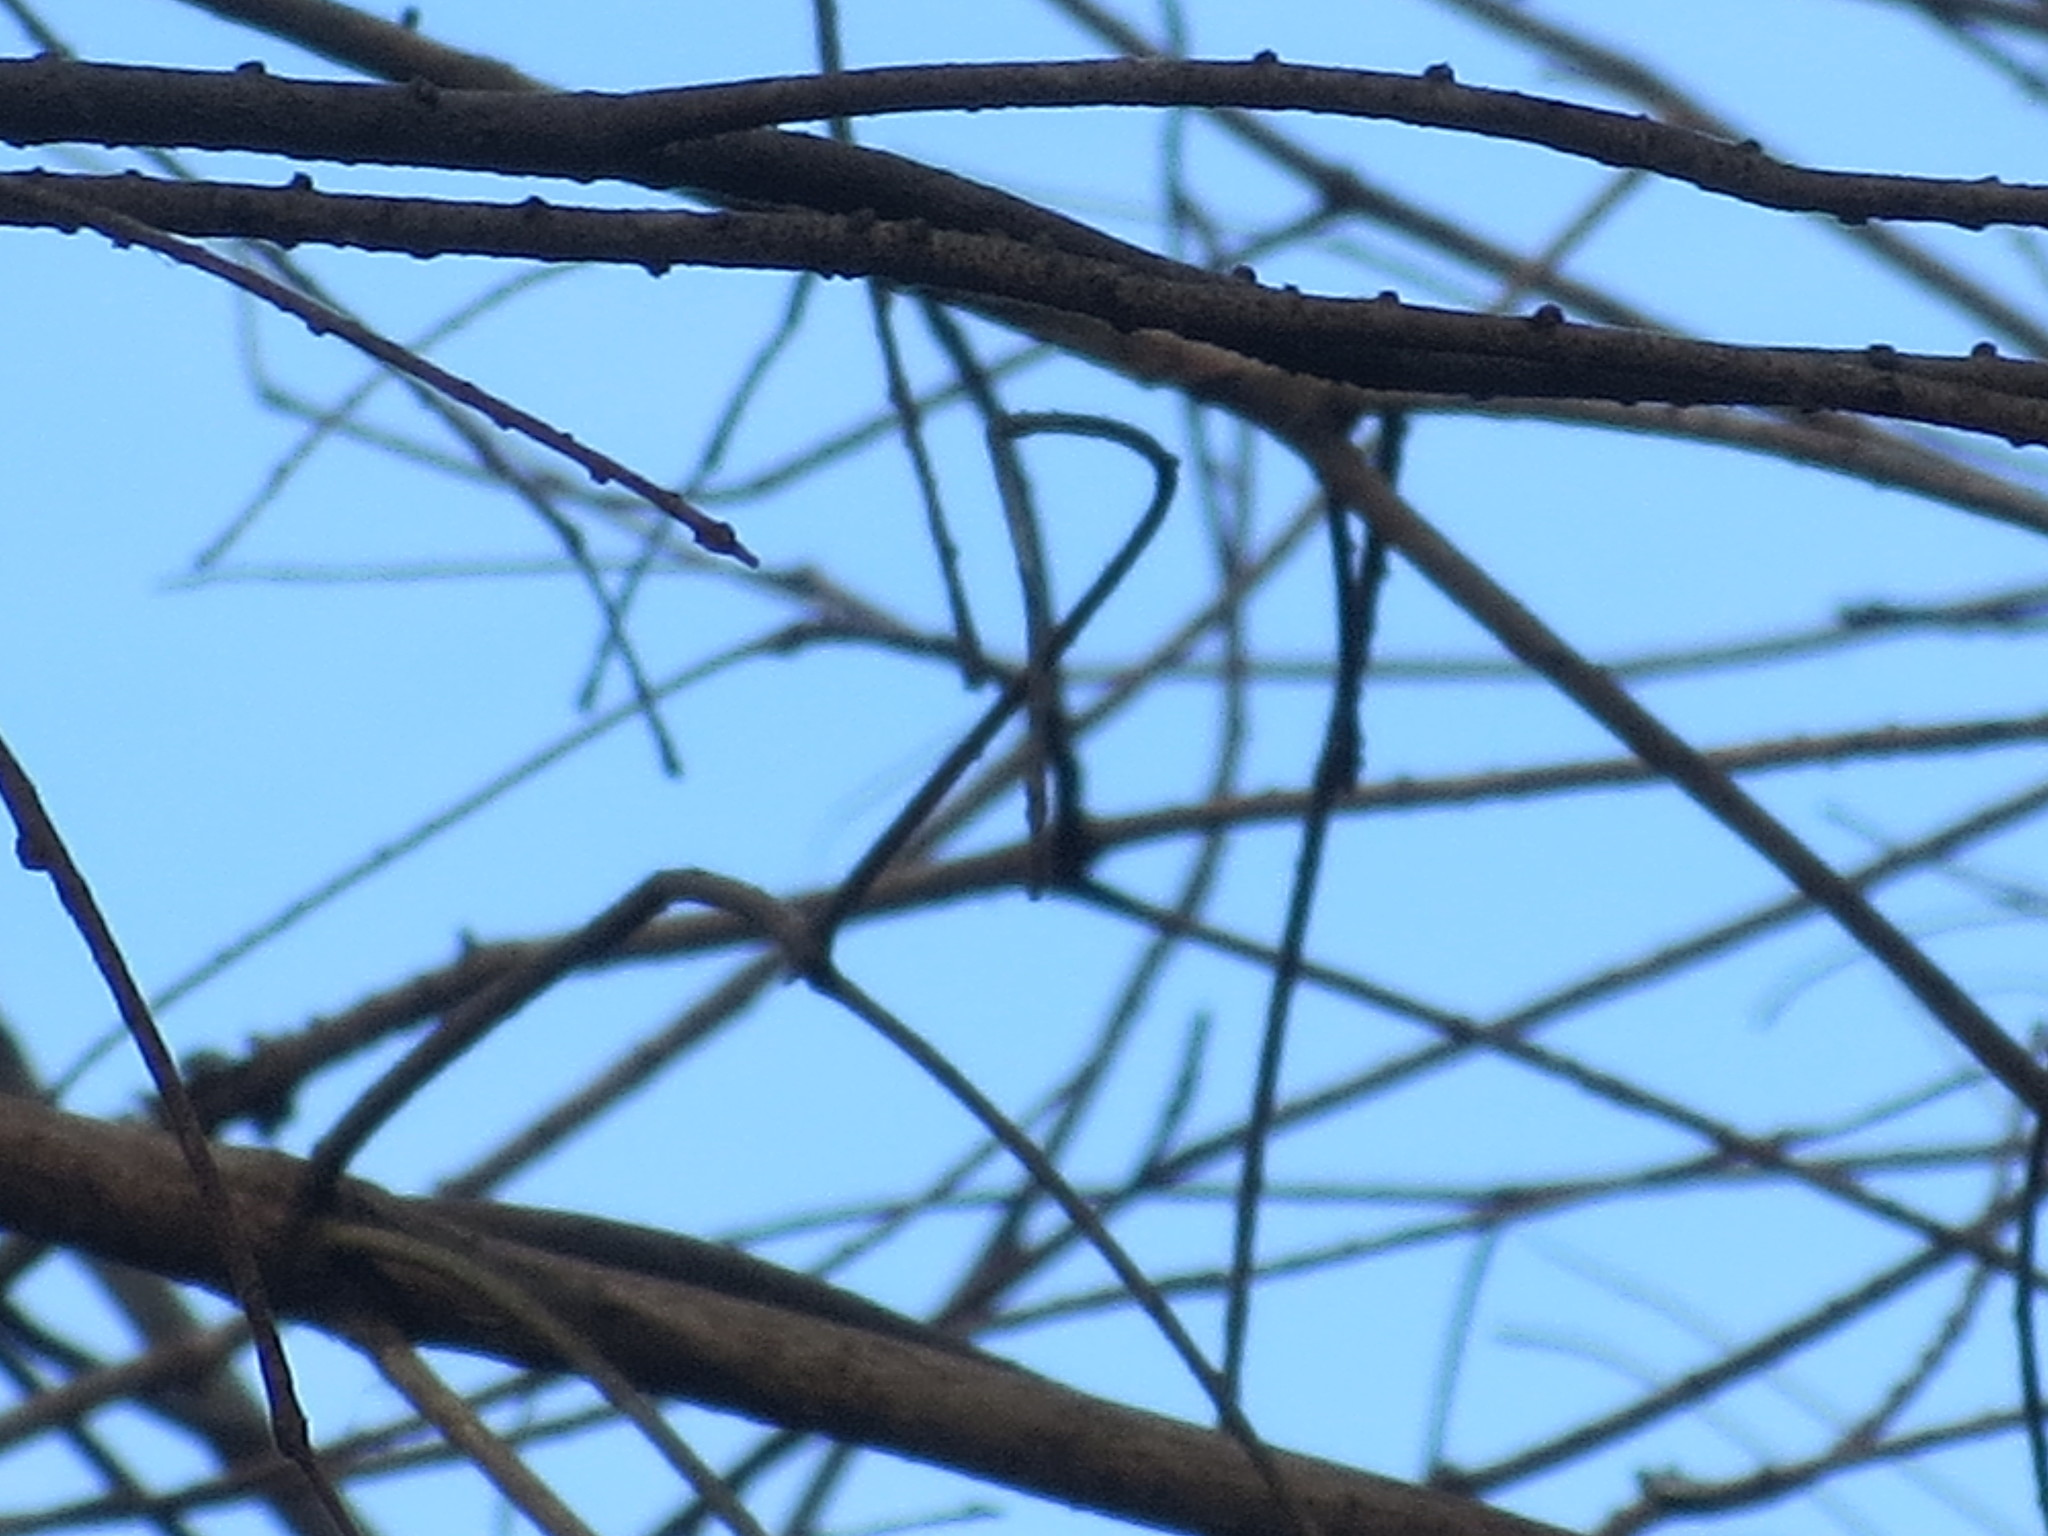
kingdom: Animalia
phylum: Chordata
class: Aves
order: Passeriformes
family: Parulidae
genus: Setophaga
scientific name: Setophaga coronata
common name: Myrtle warbler
